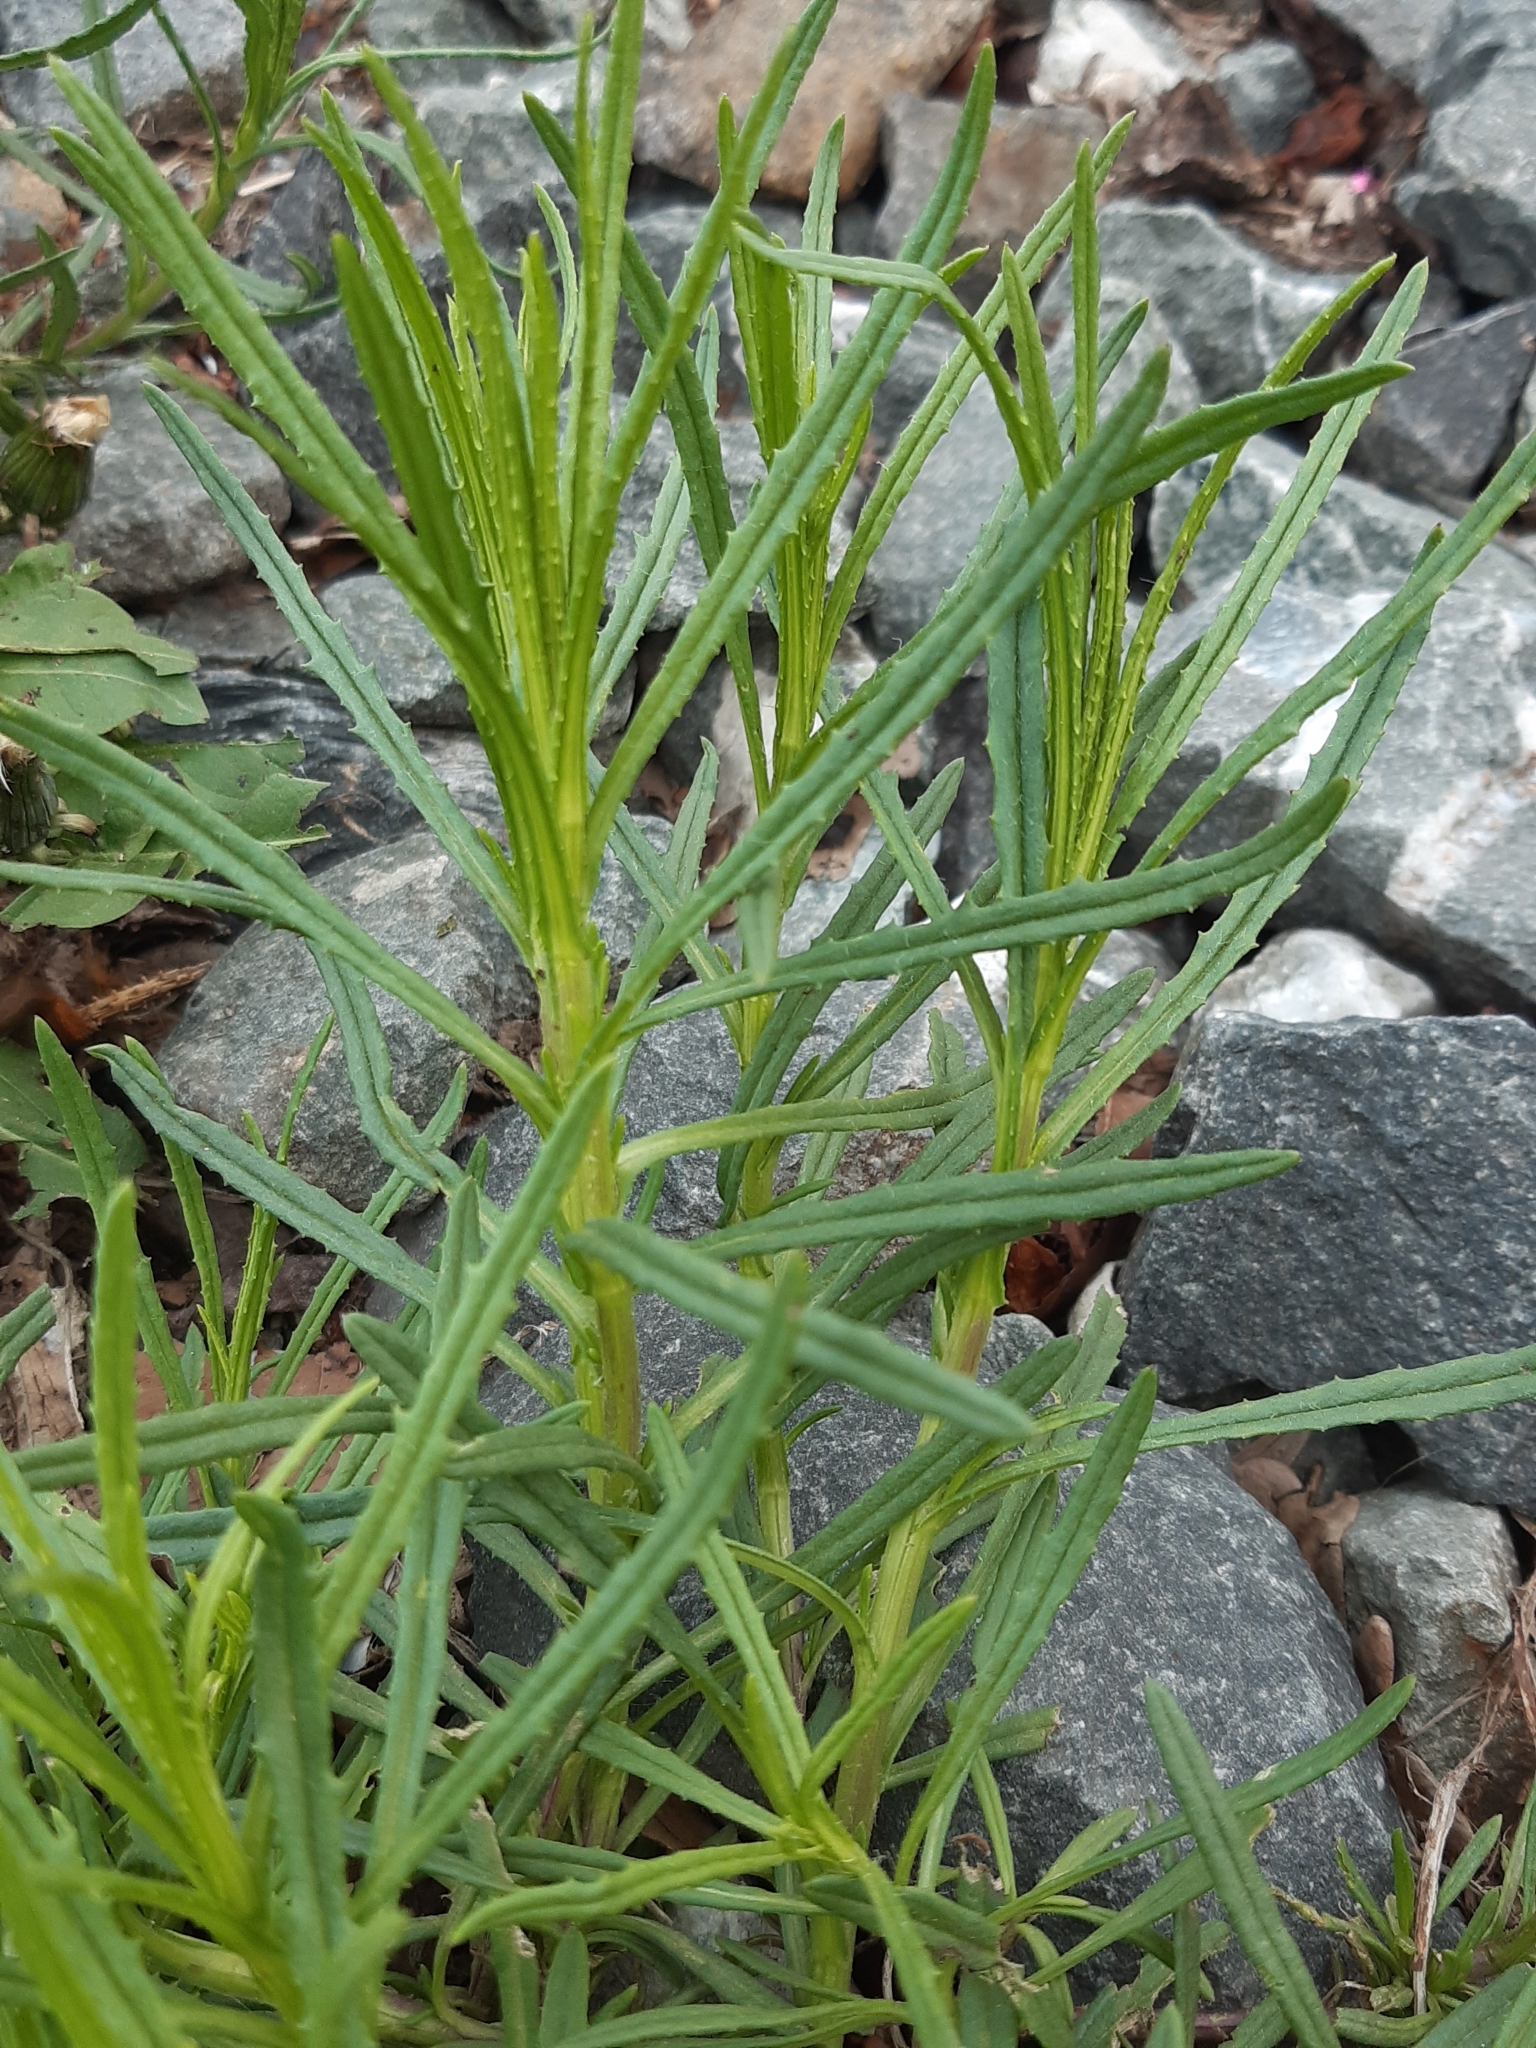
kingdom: Plantae
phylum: Tracheophyta
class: Magnoliopsida
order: Asterales
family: Asteraceae
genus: Senecio
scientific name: Senecio inaequidens
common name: Narrow-leaved ragwort
